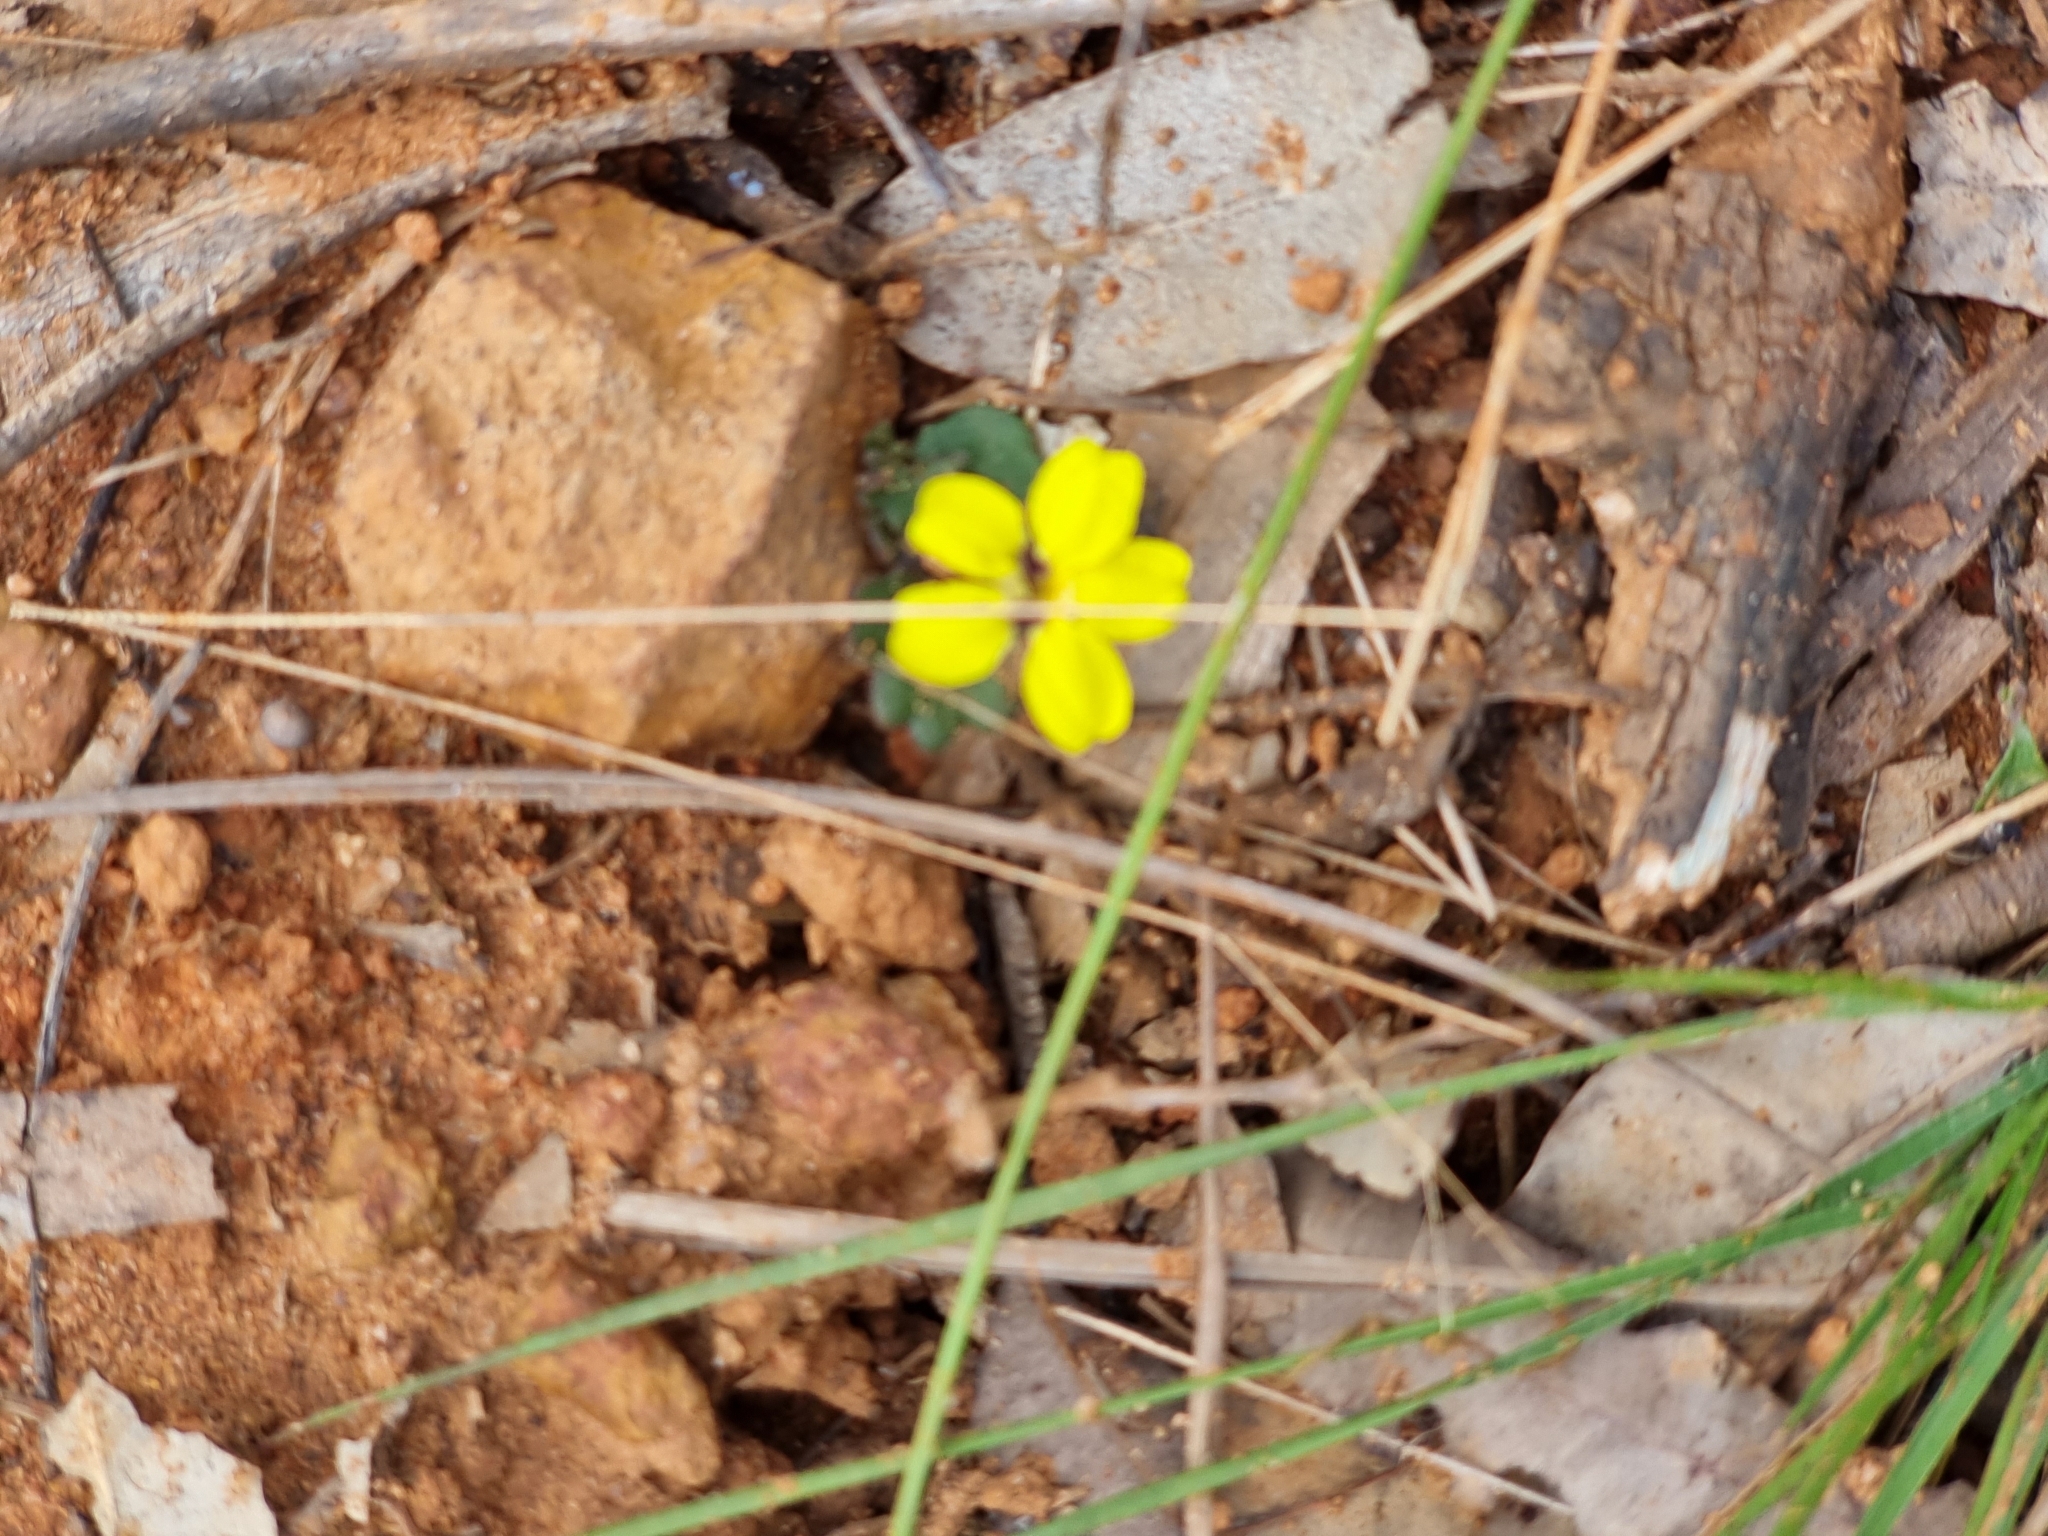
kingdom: Plantae
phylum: Tracheophyta
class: Magnoliopsida
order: Asterales
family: Goodeniaceae
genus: Goodenia
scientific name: Goodenia rotundifolia
